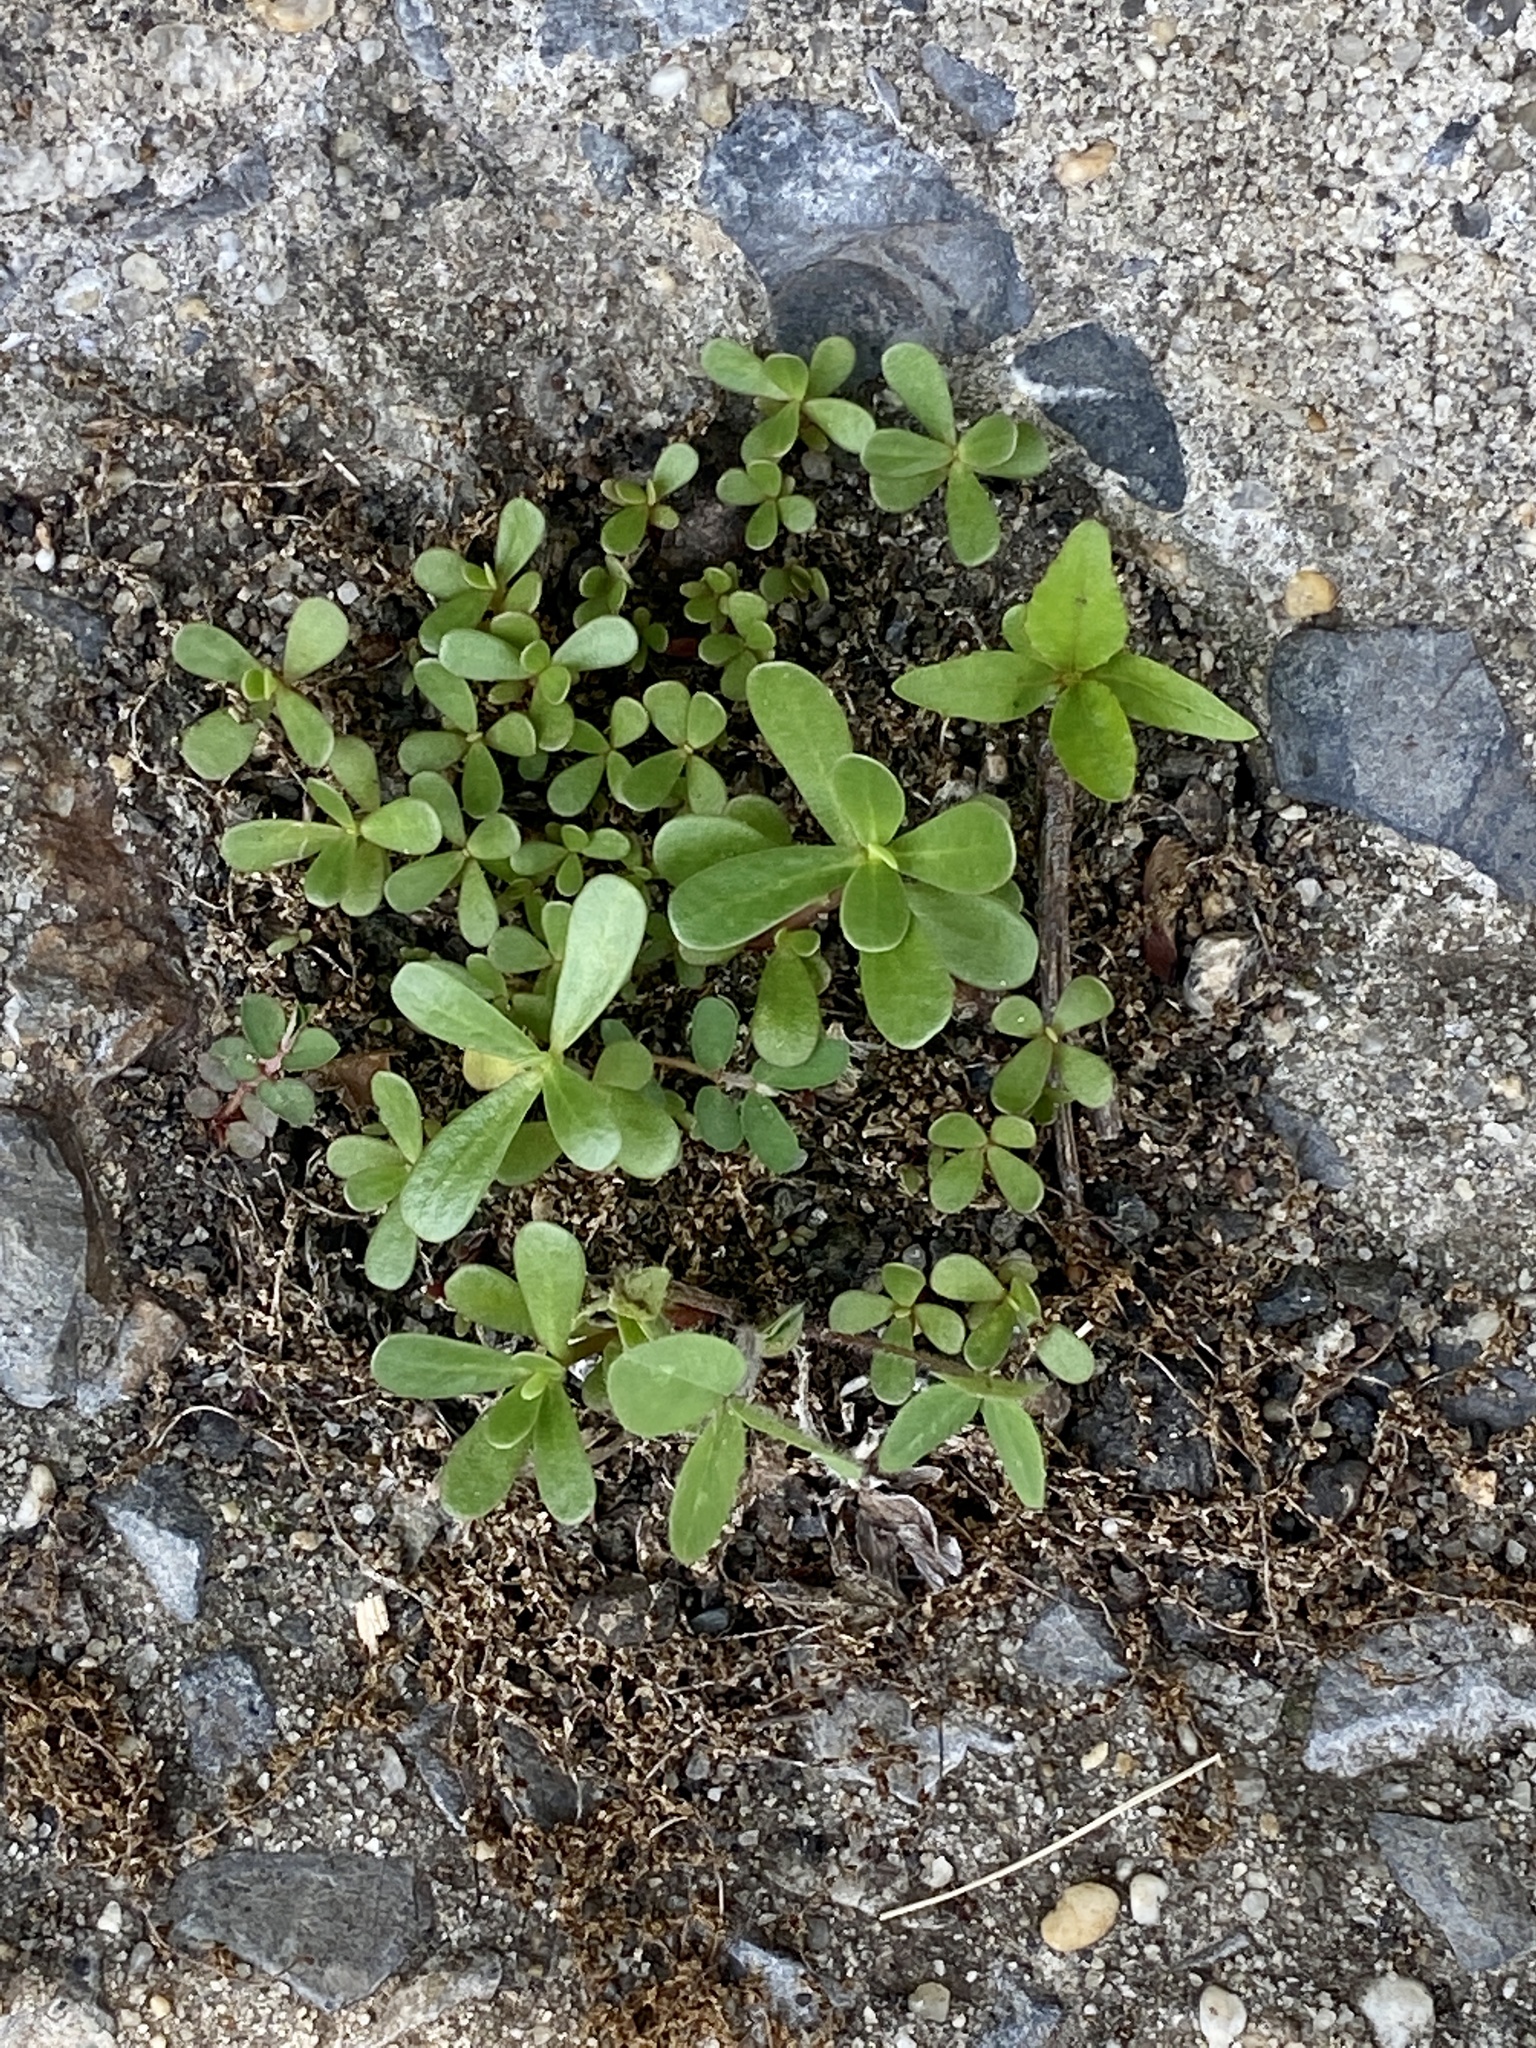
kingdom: Plantae
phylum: Tracheophyta
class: Magnoliopsida
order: Caryophyllales
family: Portulacaceae
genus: Portulaca
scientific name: Portulaca oleracea
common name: Common purslane
